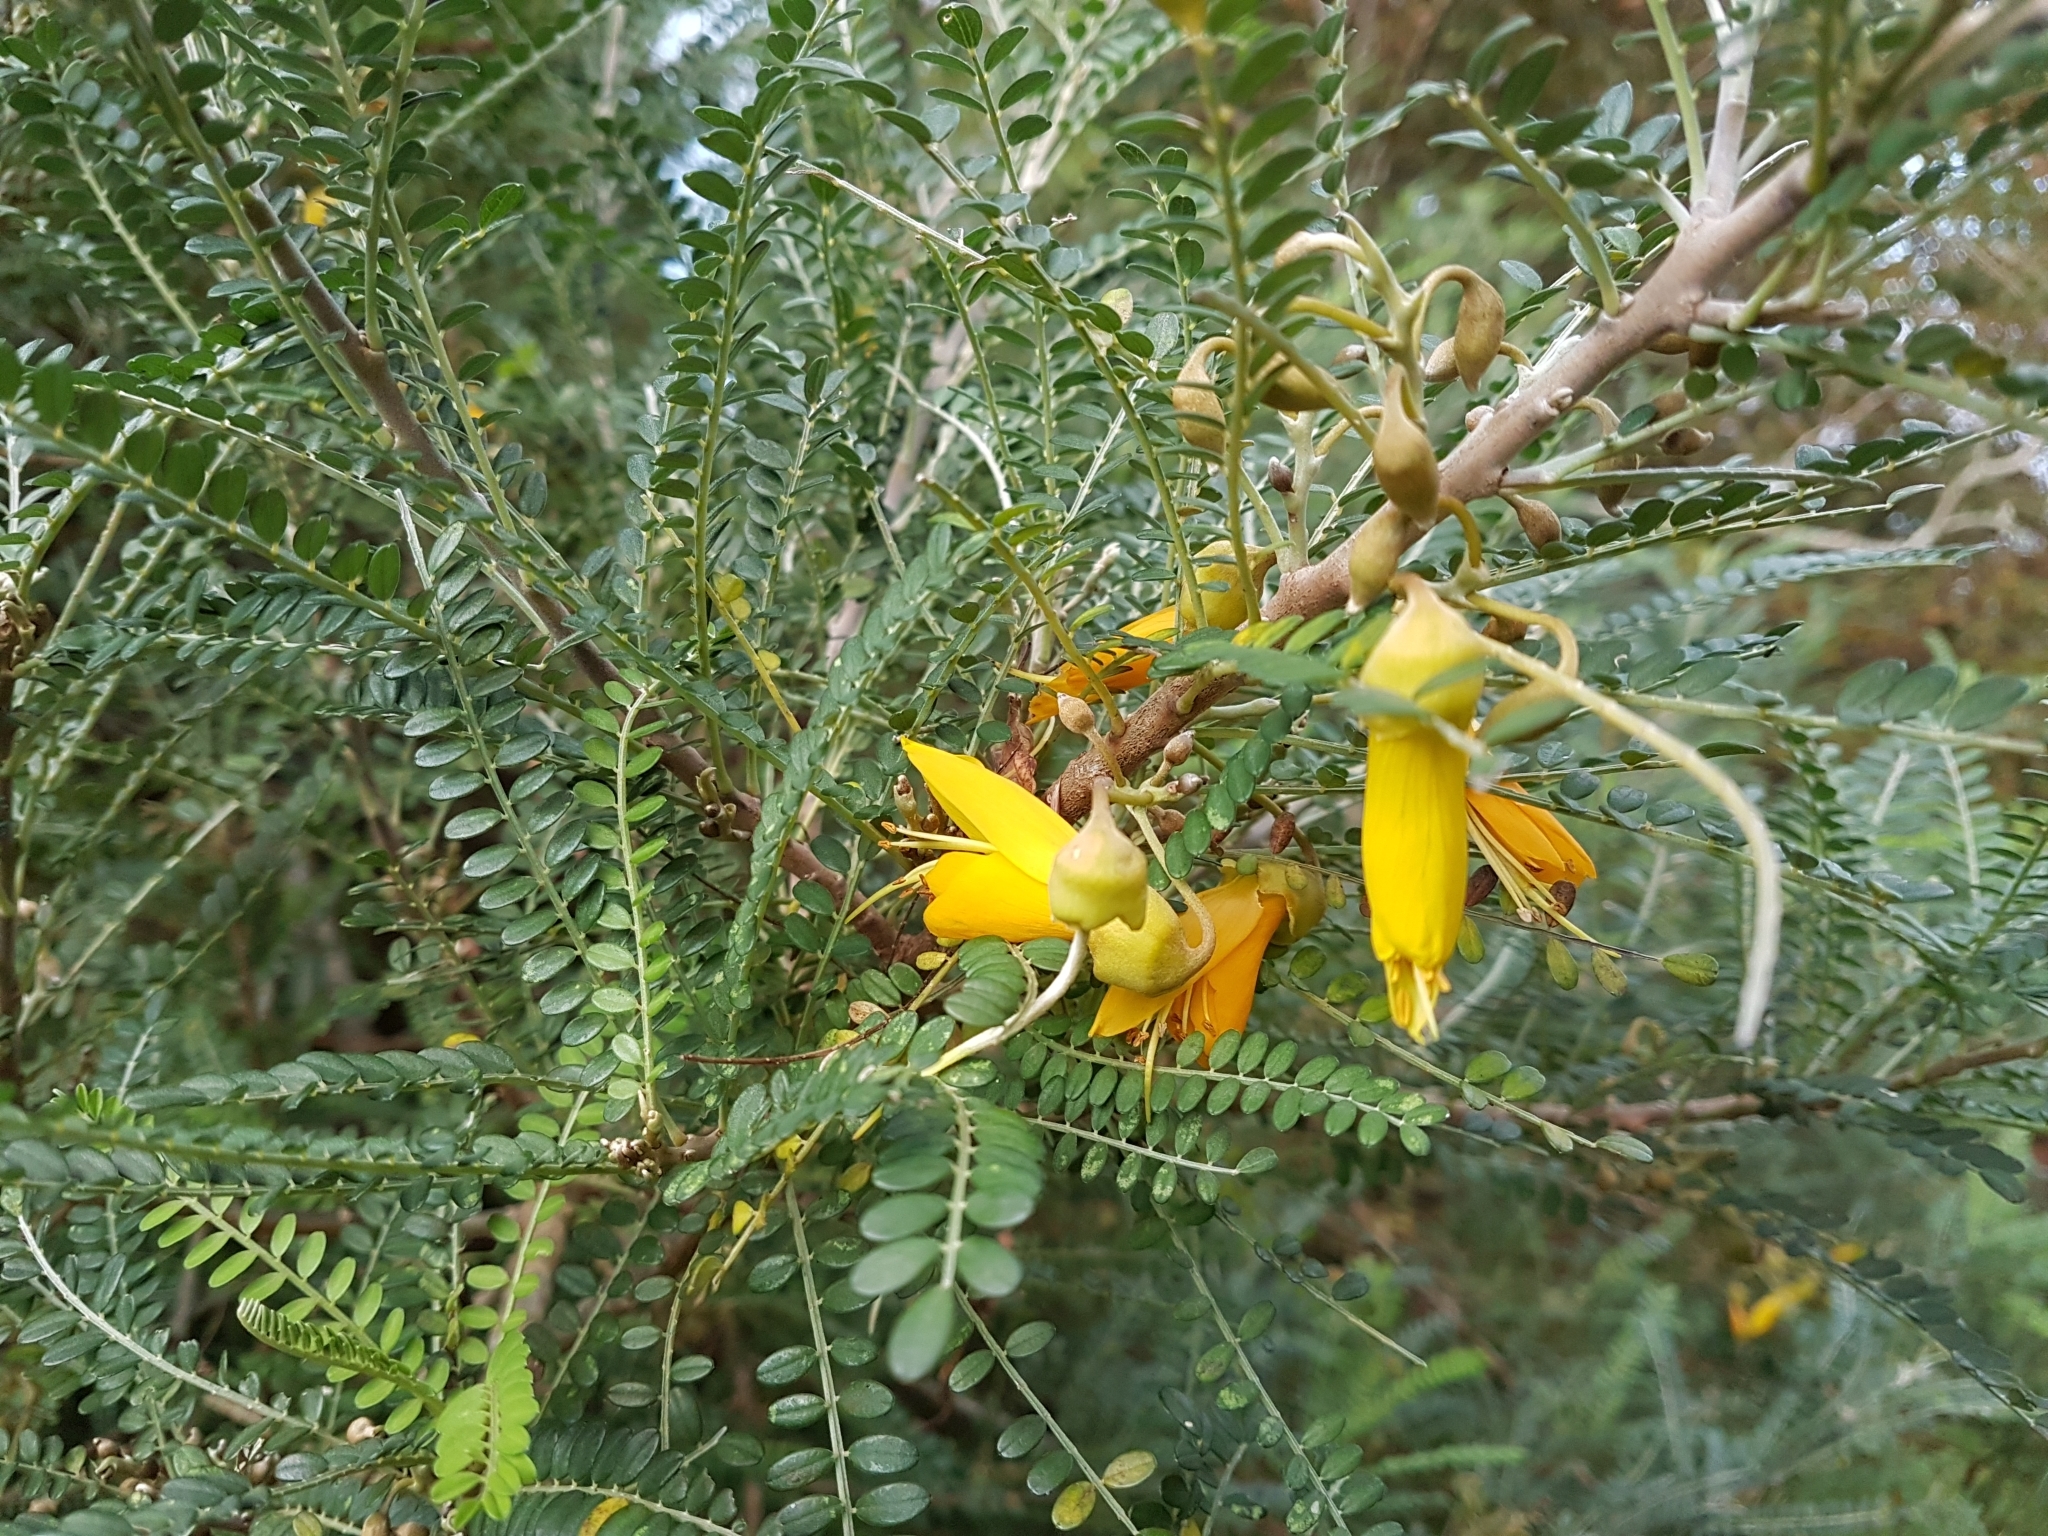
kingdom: Animalia
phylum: Chordata
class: Aves
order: Passeriformes
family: Meliphagidae
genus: Prosthemadera
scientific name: Prosthemadera novaeseelandiae
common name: Tui
